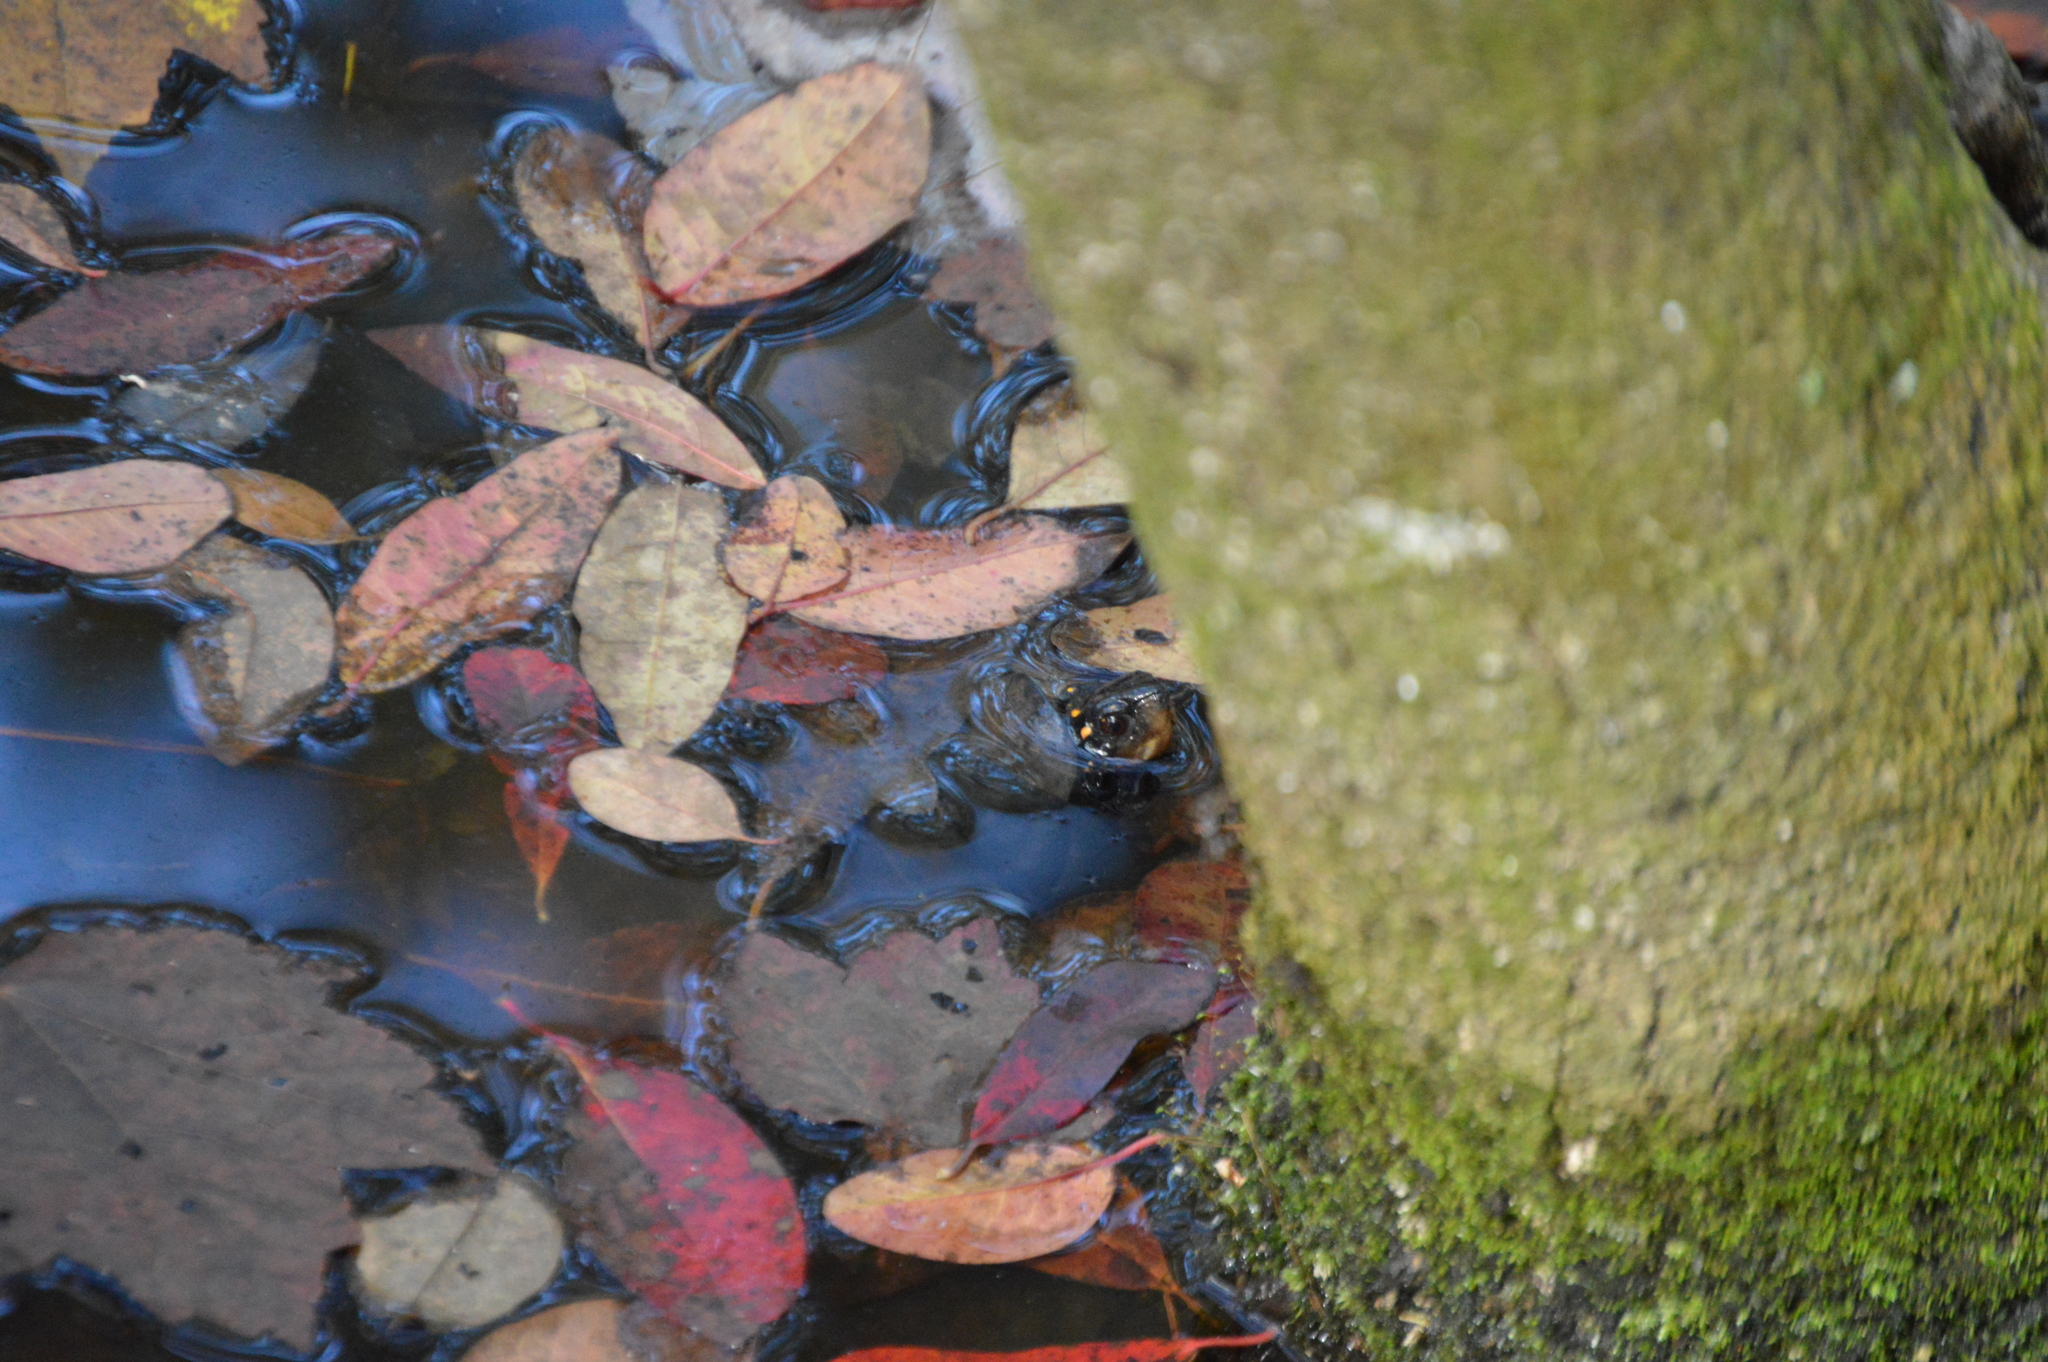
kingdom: Animalia
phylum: Chordata
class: Testudines
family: Emydidae
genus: Clemmys
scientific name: Clemmys guttata
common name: Spotted turtle
